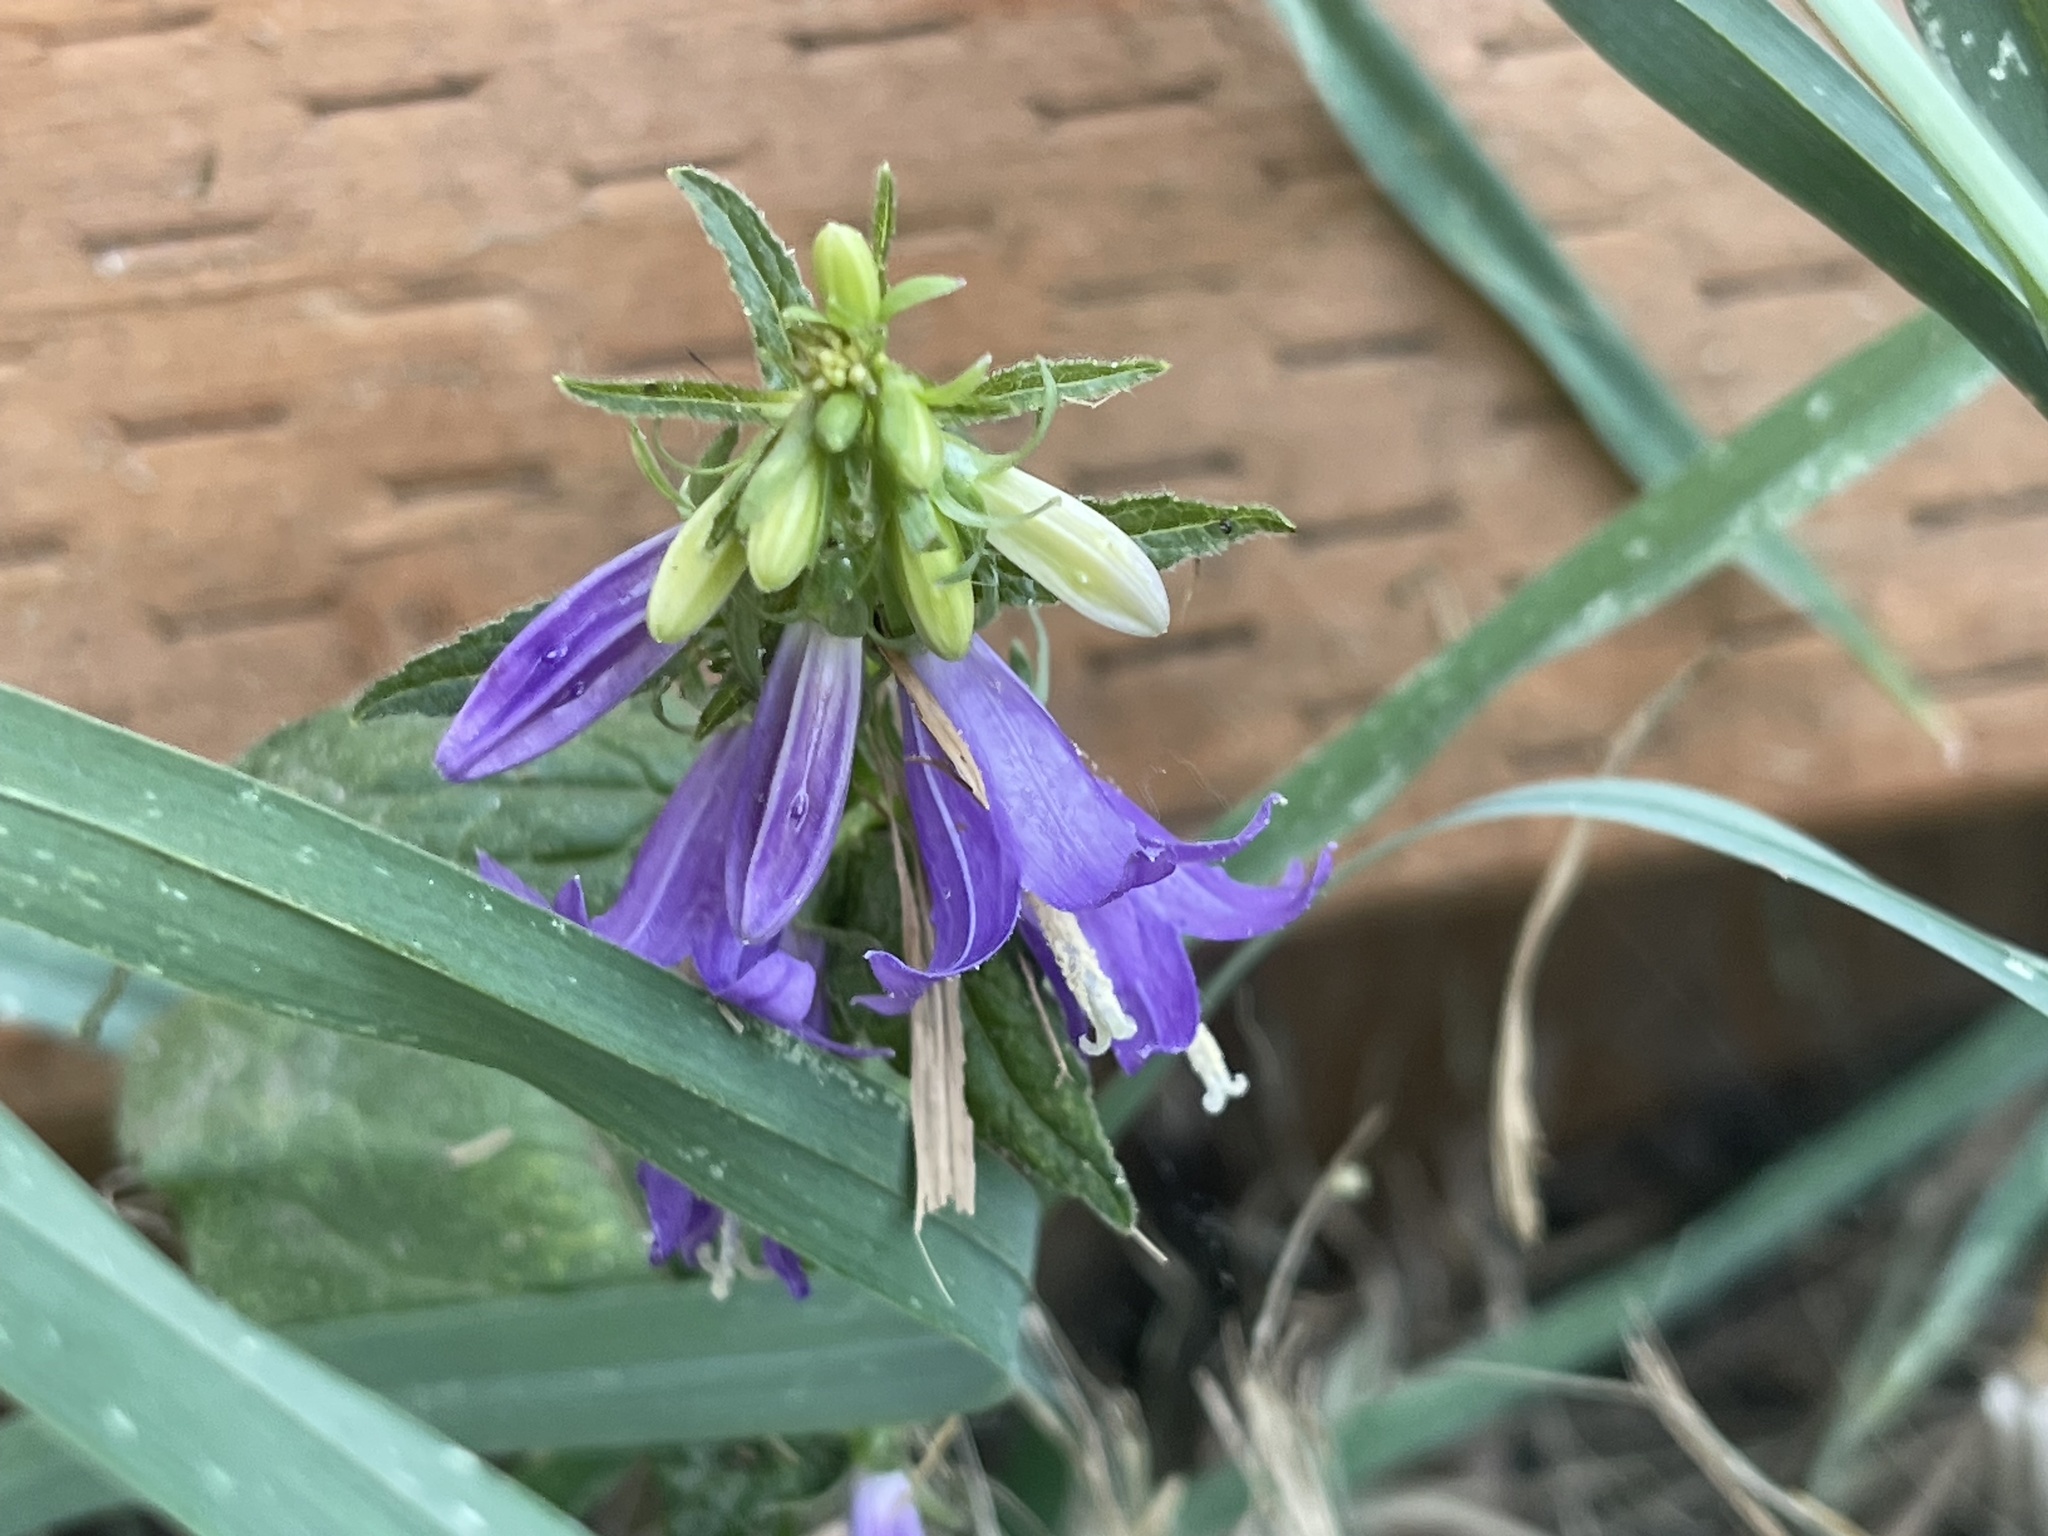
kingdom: Plantae
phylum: Tracheophyta
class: Magnoliopsida
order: Asterales
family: Campanulaceae
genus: Campanula
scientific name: Campanula rapunculoides
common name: Creeping bellflower
